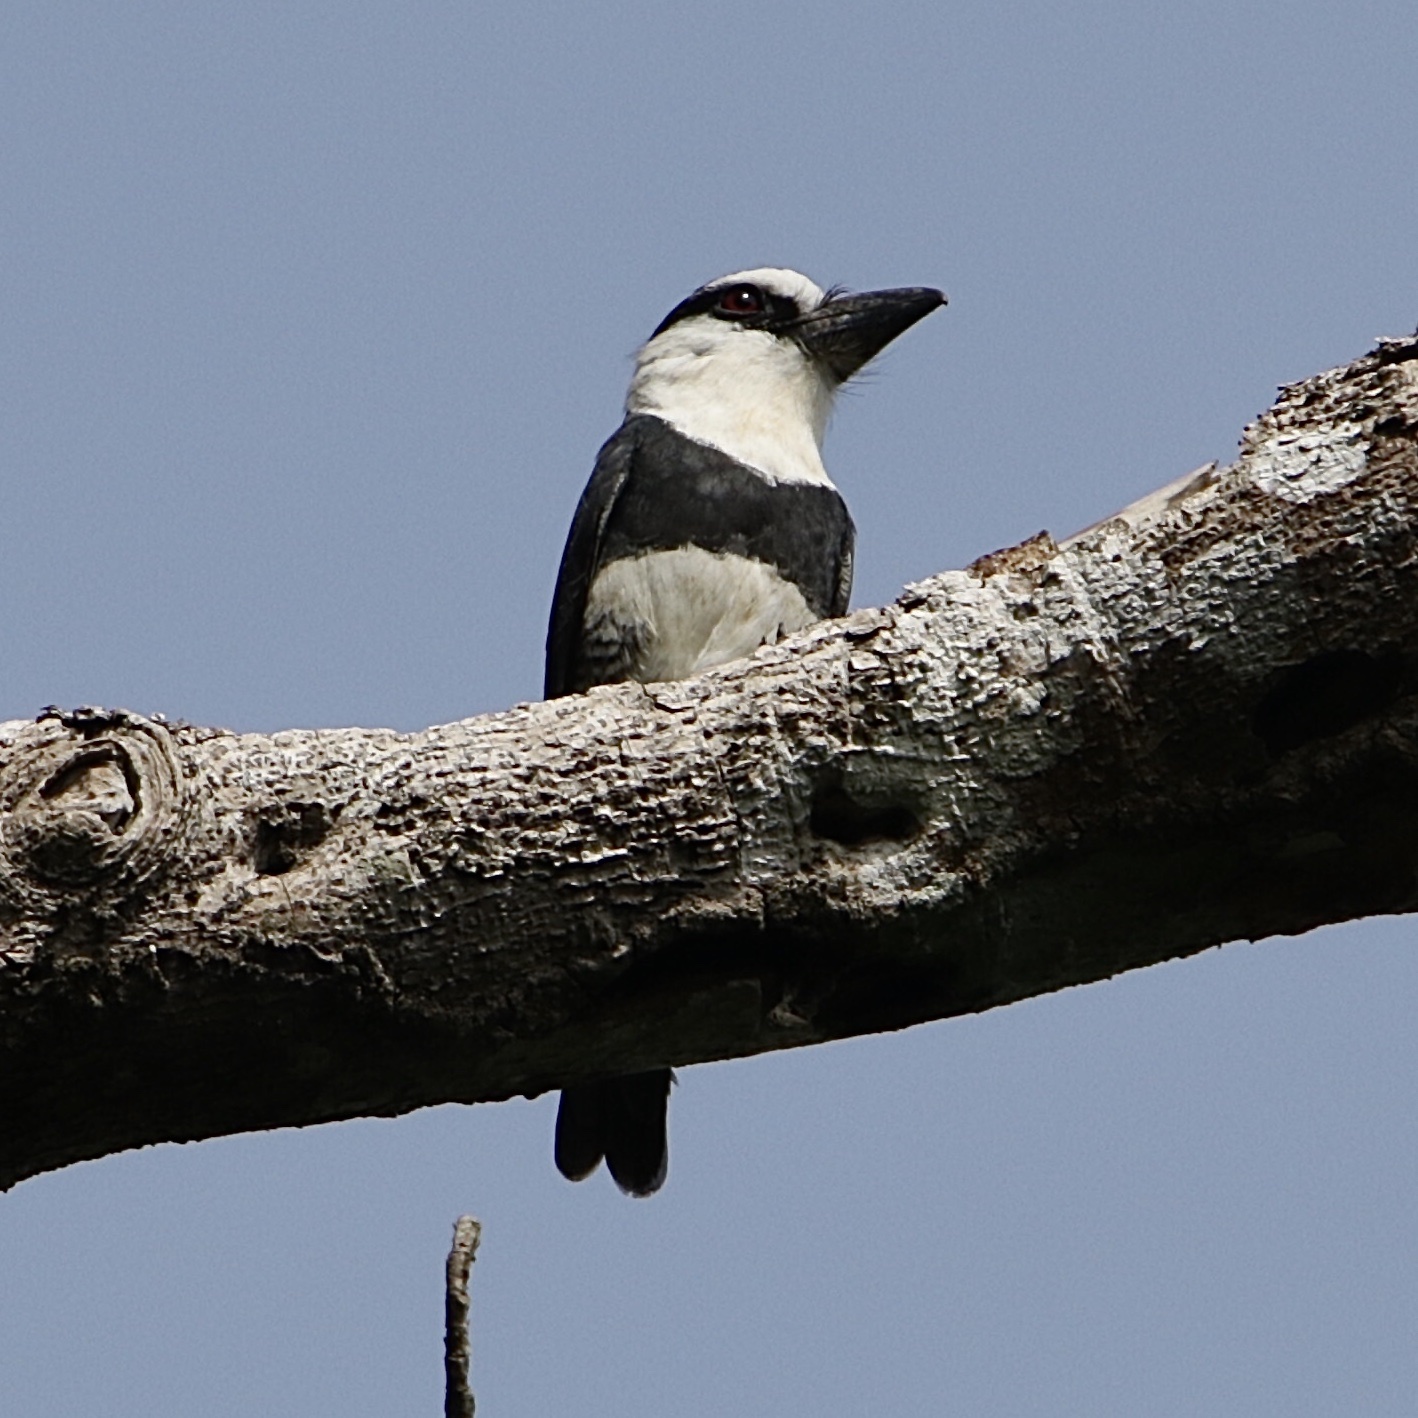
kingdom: Animalia
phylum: Chordata
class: Aves
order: Piciformes
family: Bucconidae
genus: Notharchus
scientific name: Notharchus hyperrhynchus
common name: White-necked puffbird
